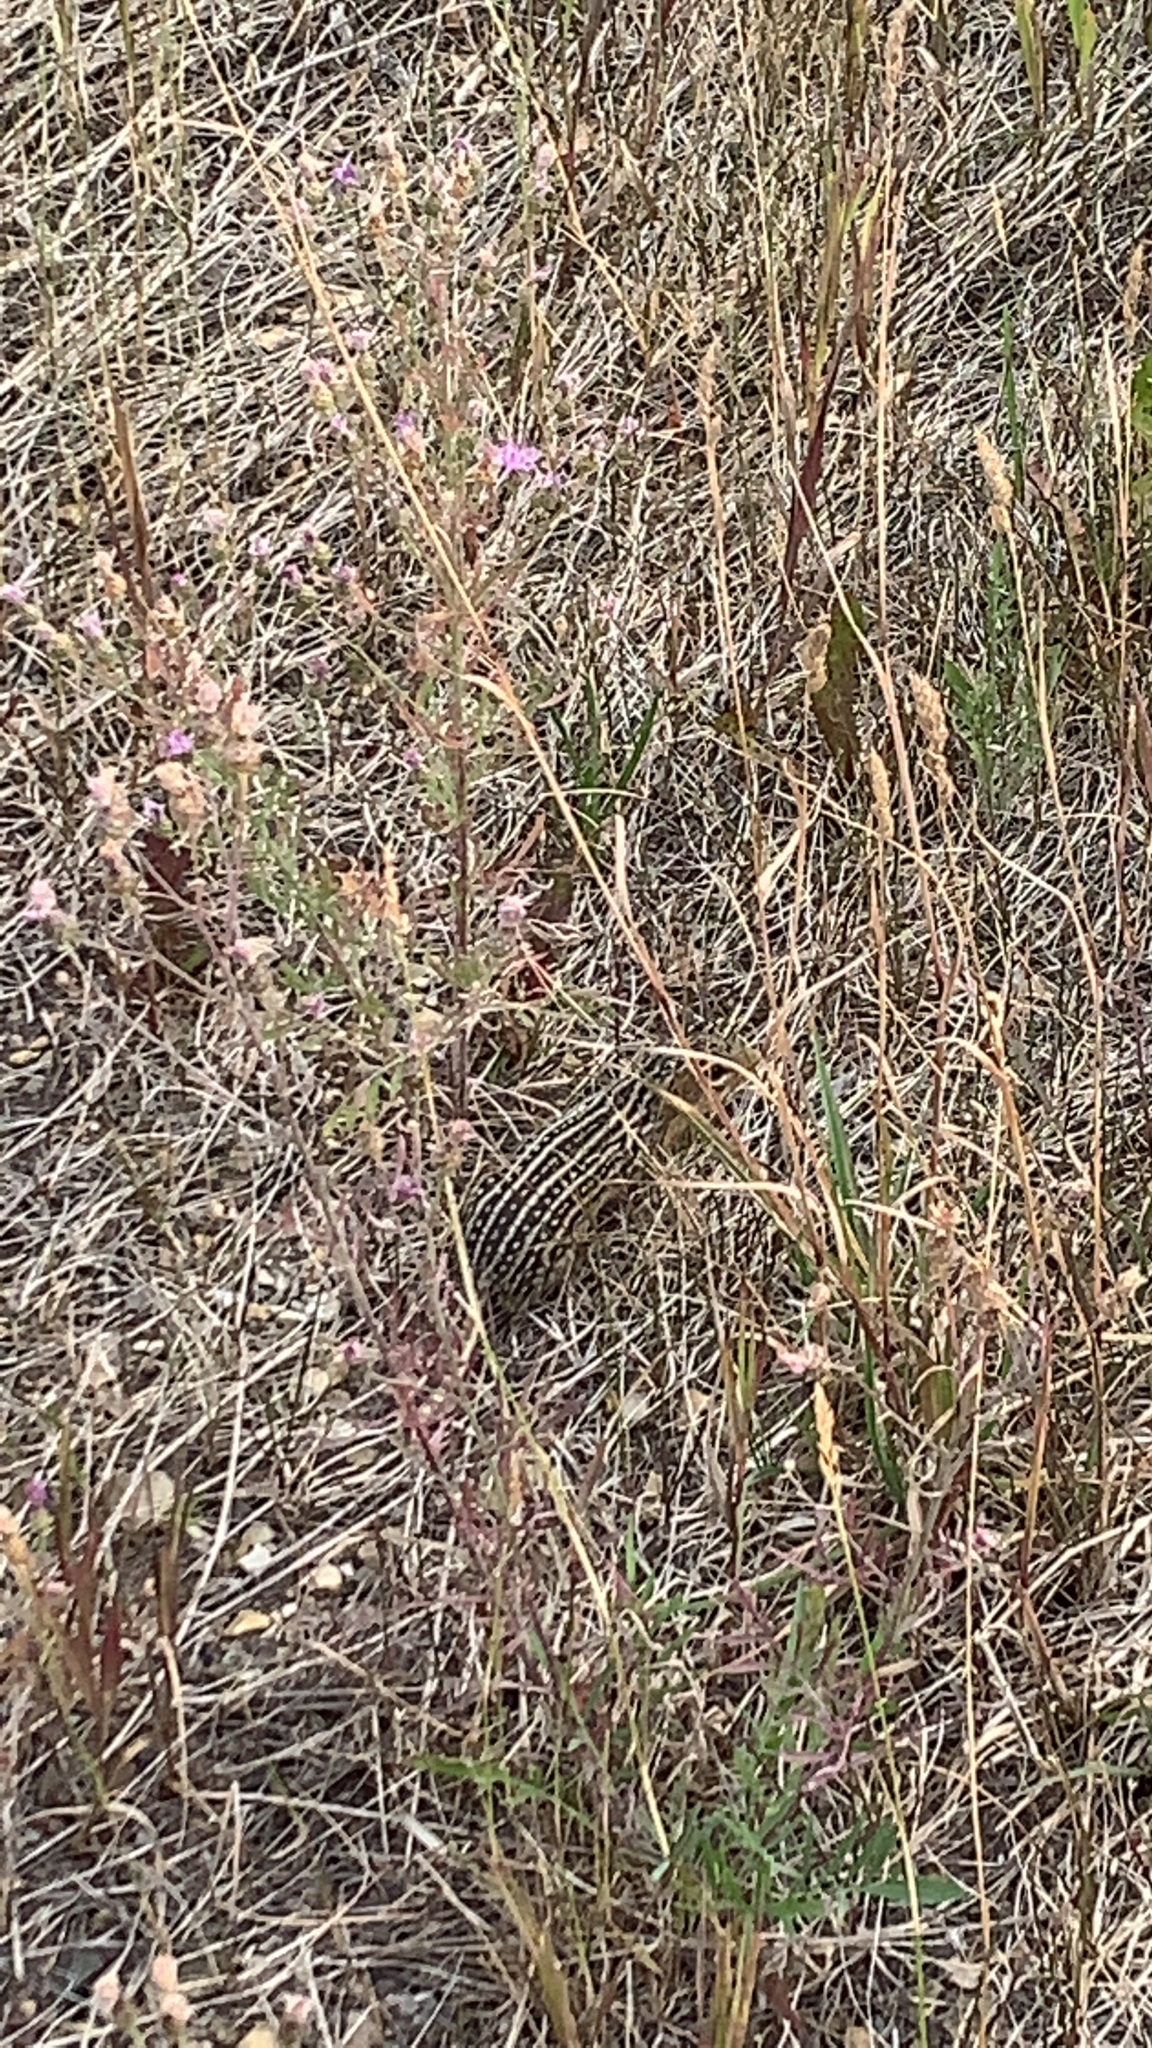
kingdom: Animalia
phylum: Chordata
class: Mammalia
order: Rodentia
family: Sciuridae
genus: Ictidomys
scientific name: Ictidomys tridecemlineatus
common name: Thirteen-lined ground squirrel
